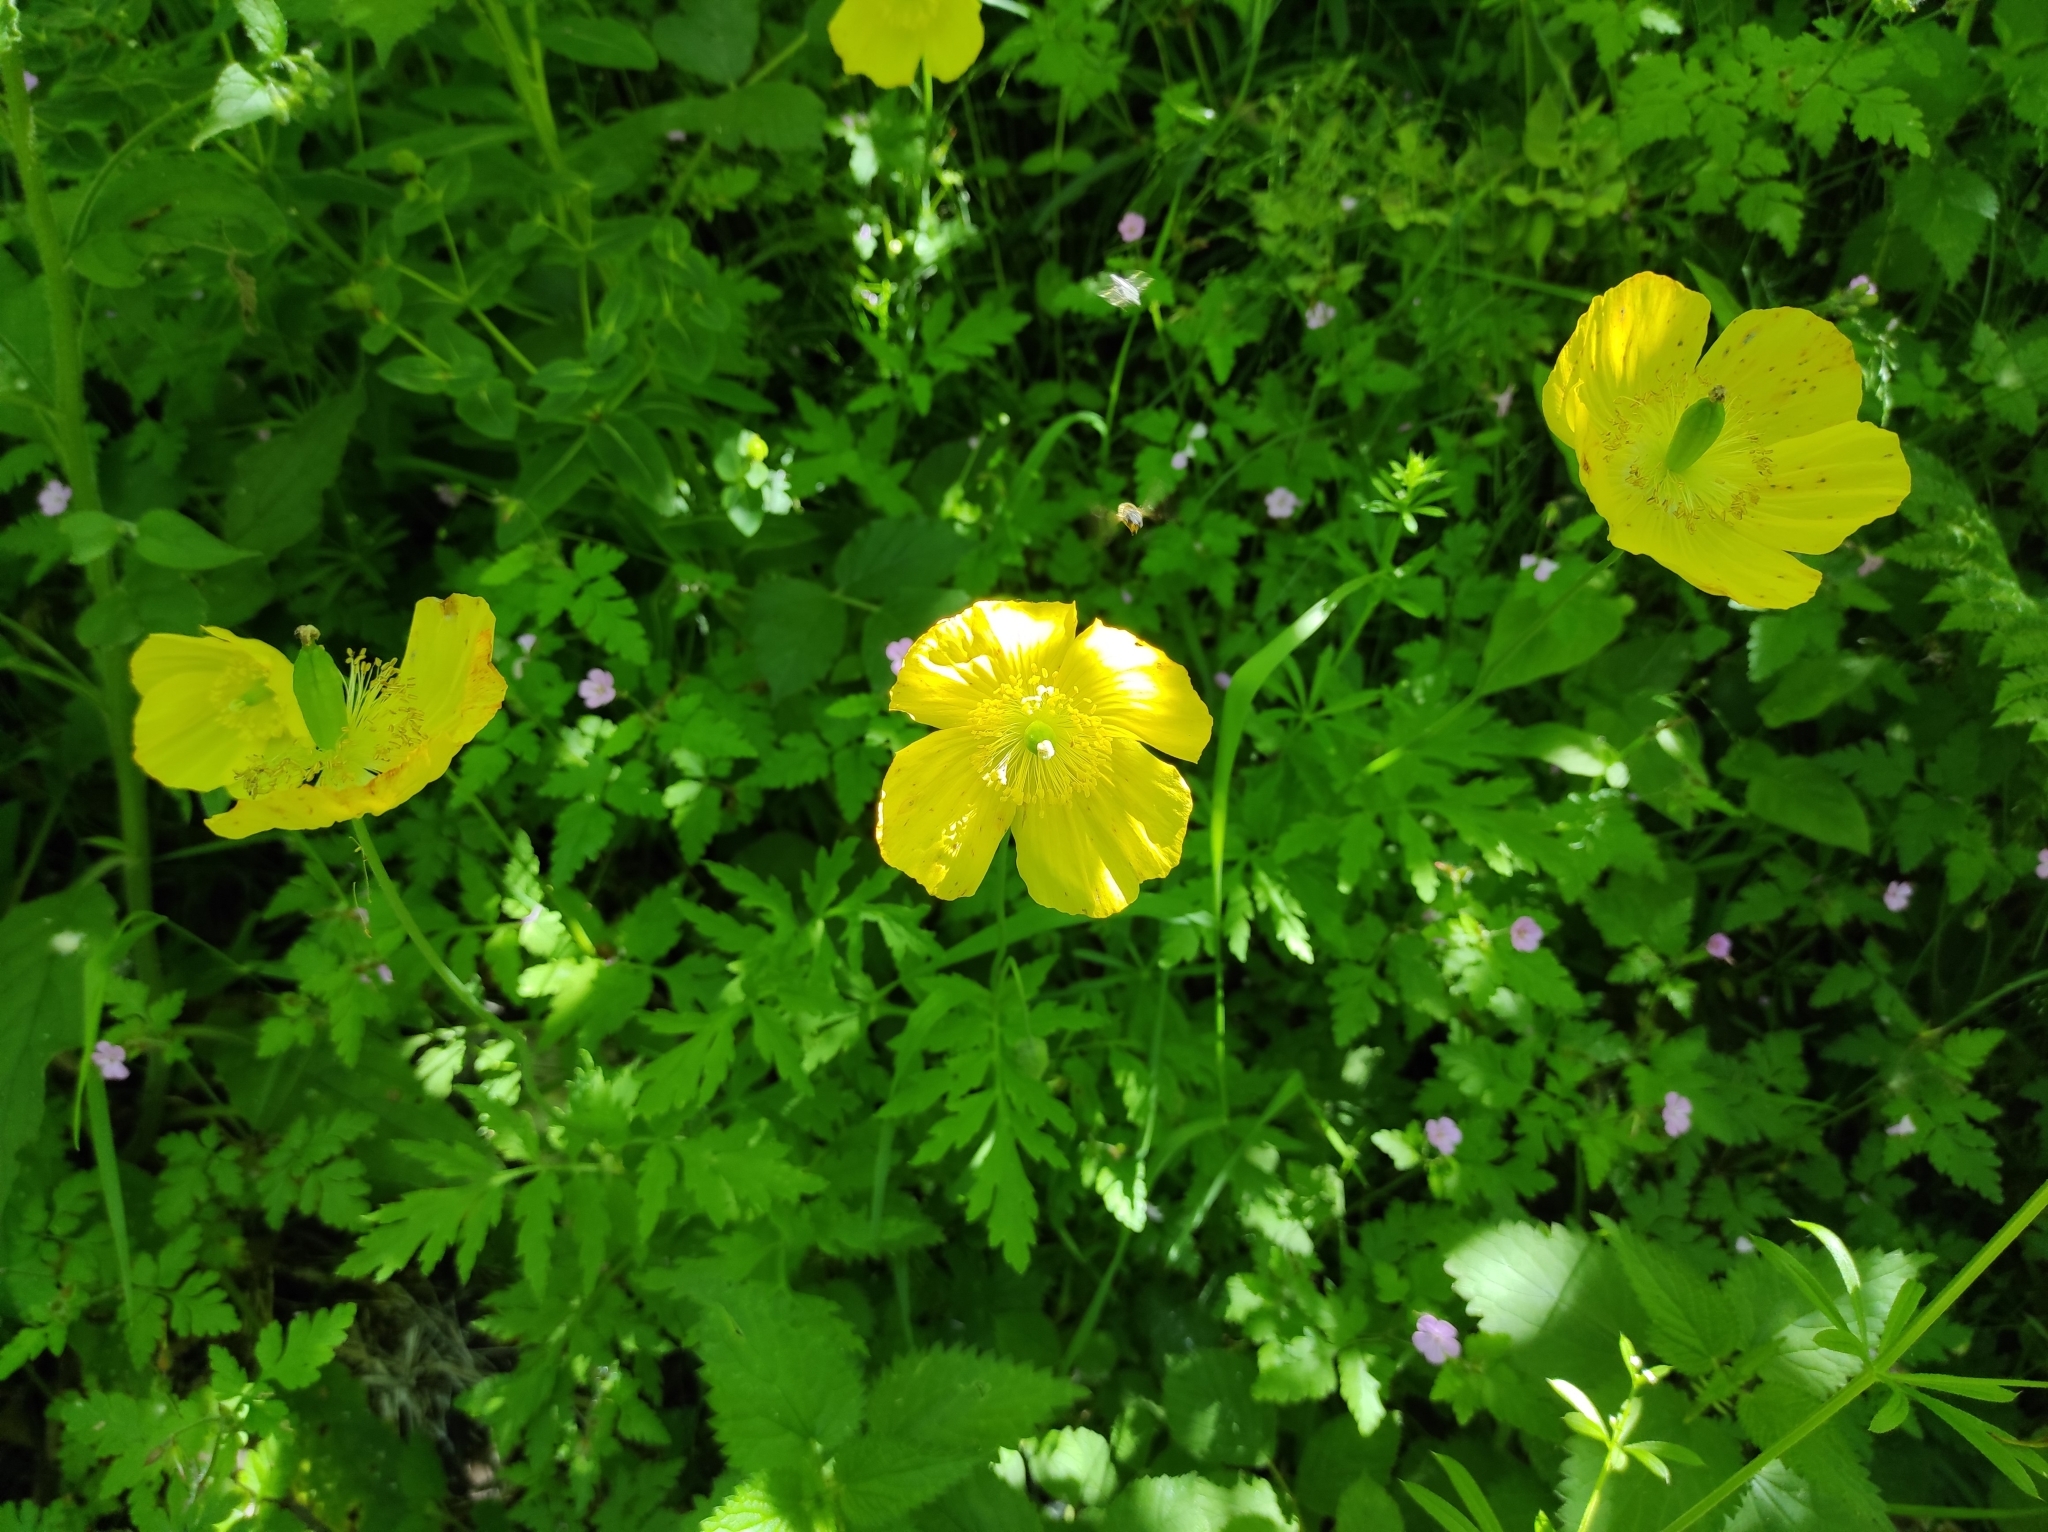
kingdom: Plantae
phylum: Tracheophyta
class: Magnoliopsida
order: Ranunculales
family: Papaveraceae
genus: Papaver
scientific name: Papaver cambricum
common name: Poppy
